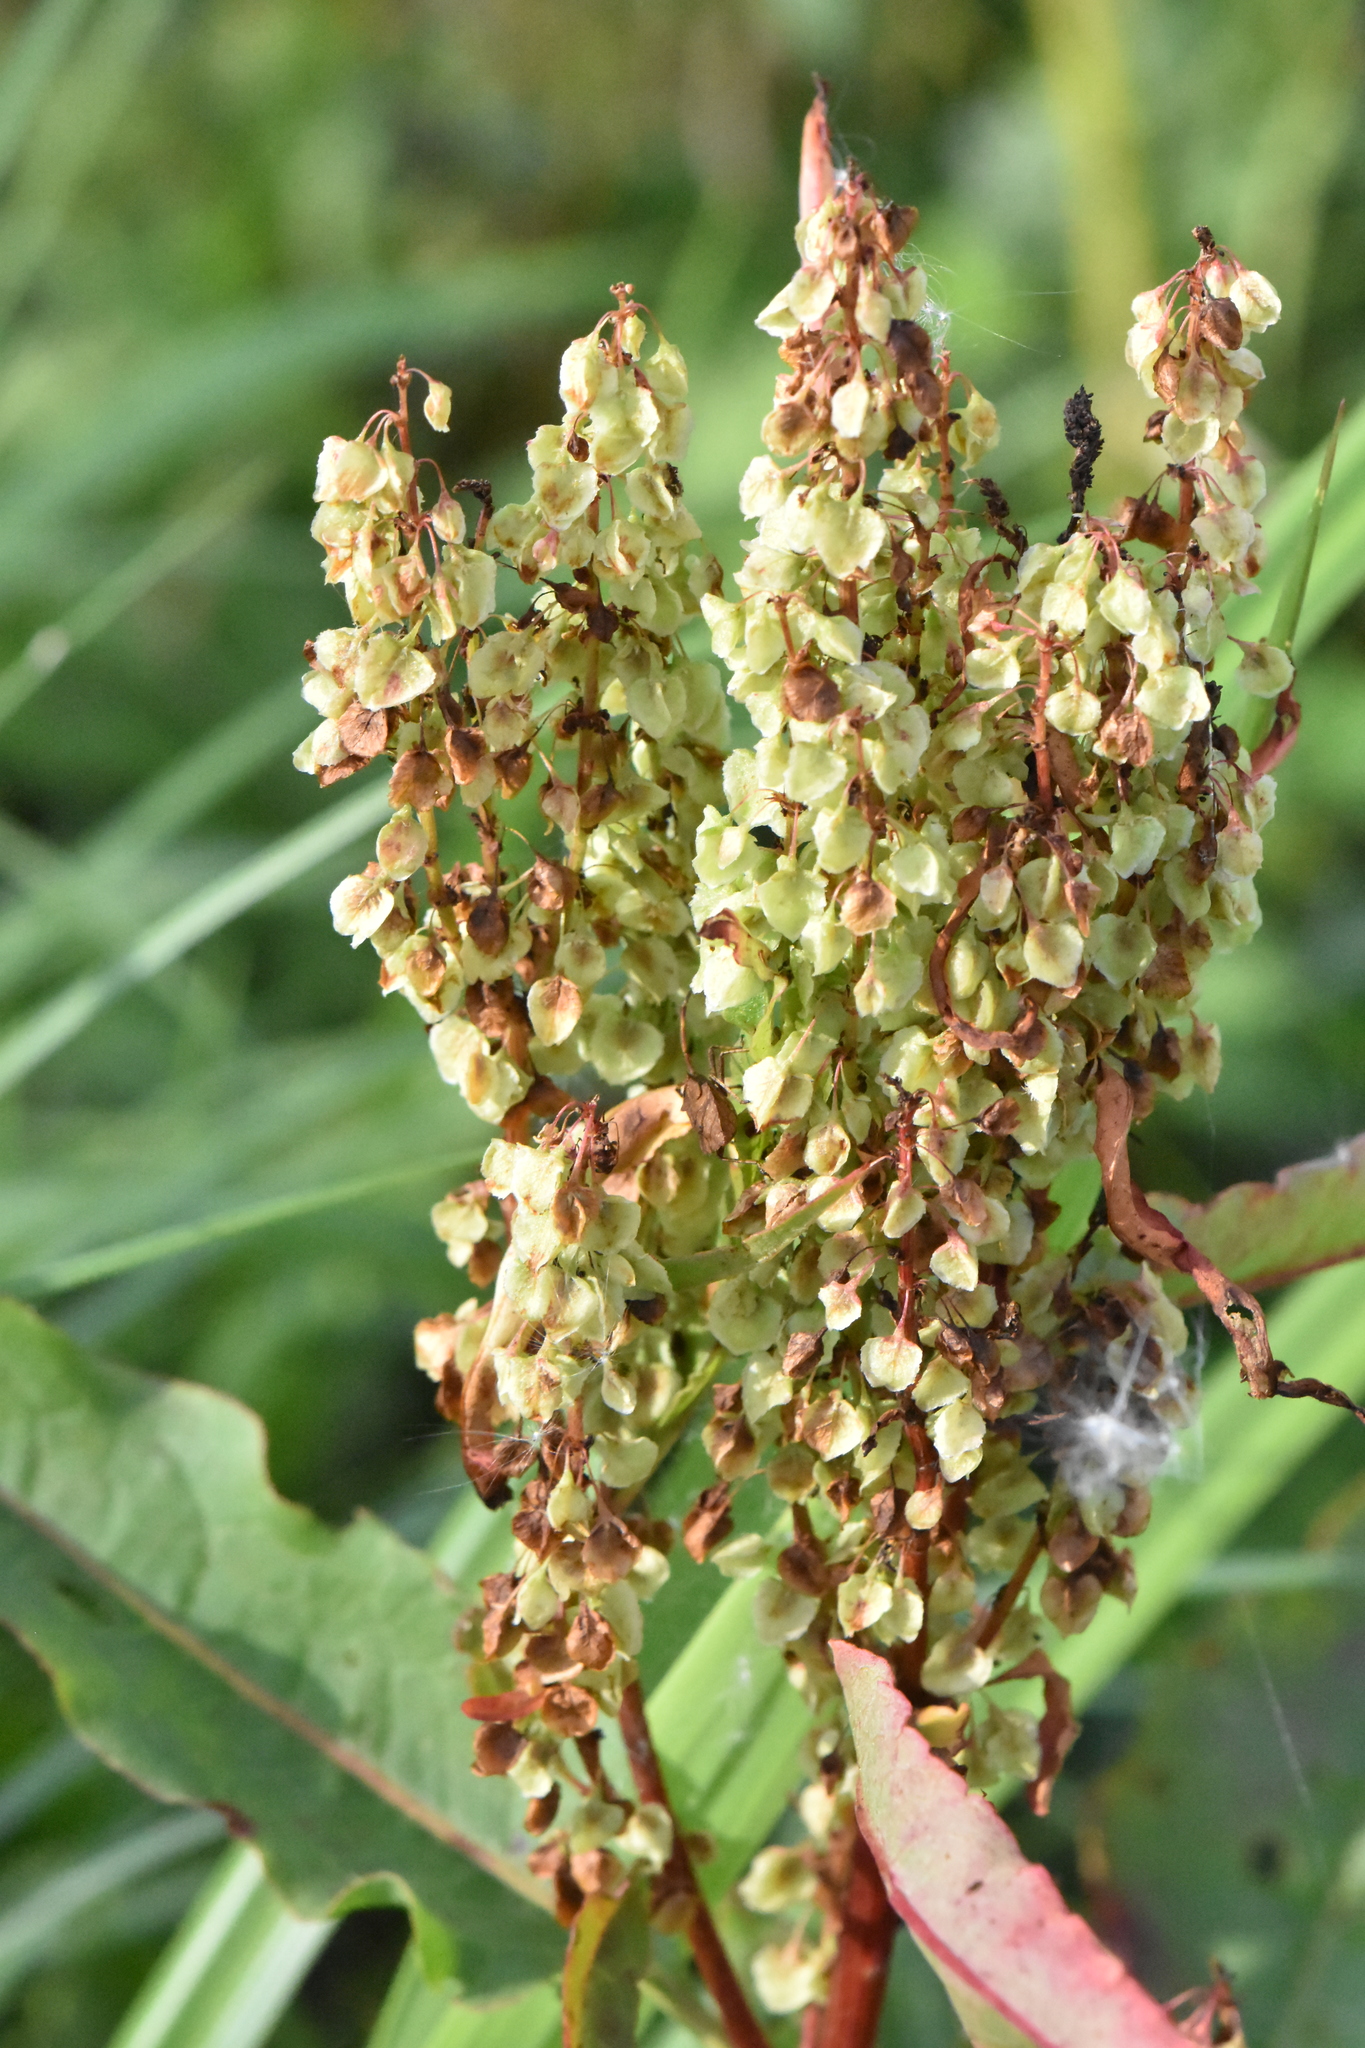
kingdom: Plantae
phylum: Tracheophyta
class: Magnoliopsida
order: Caryophyllales
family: Polygonaceae
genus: Rumex
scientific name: Rumex aquaticus
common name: Scottish dock
